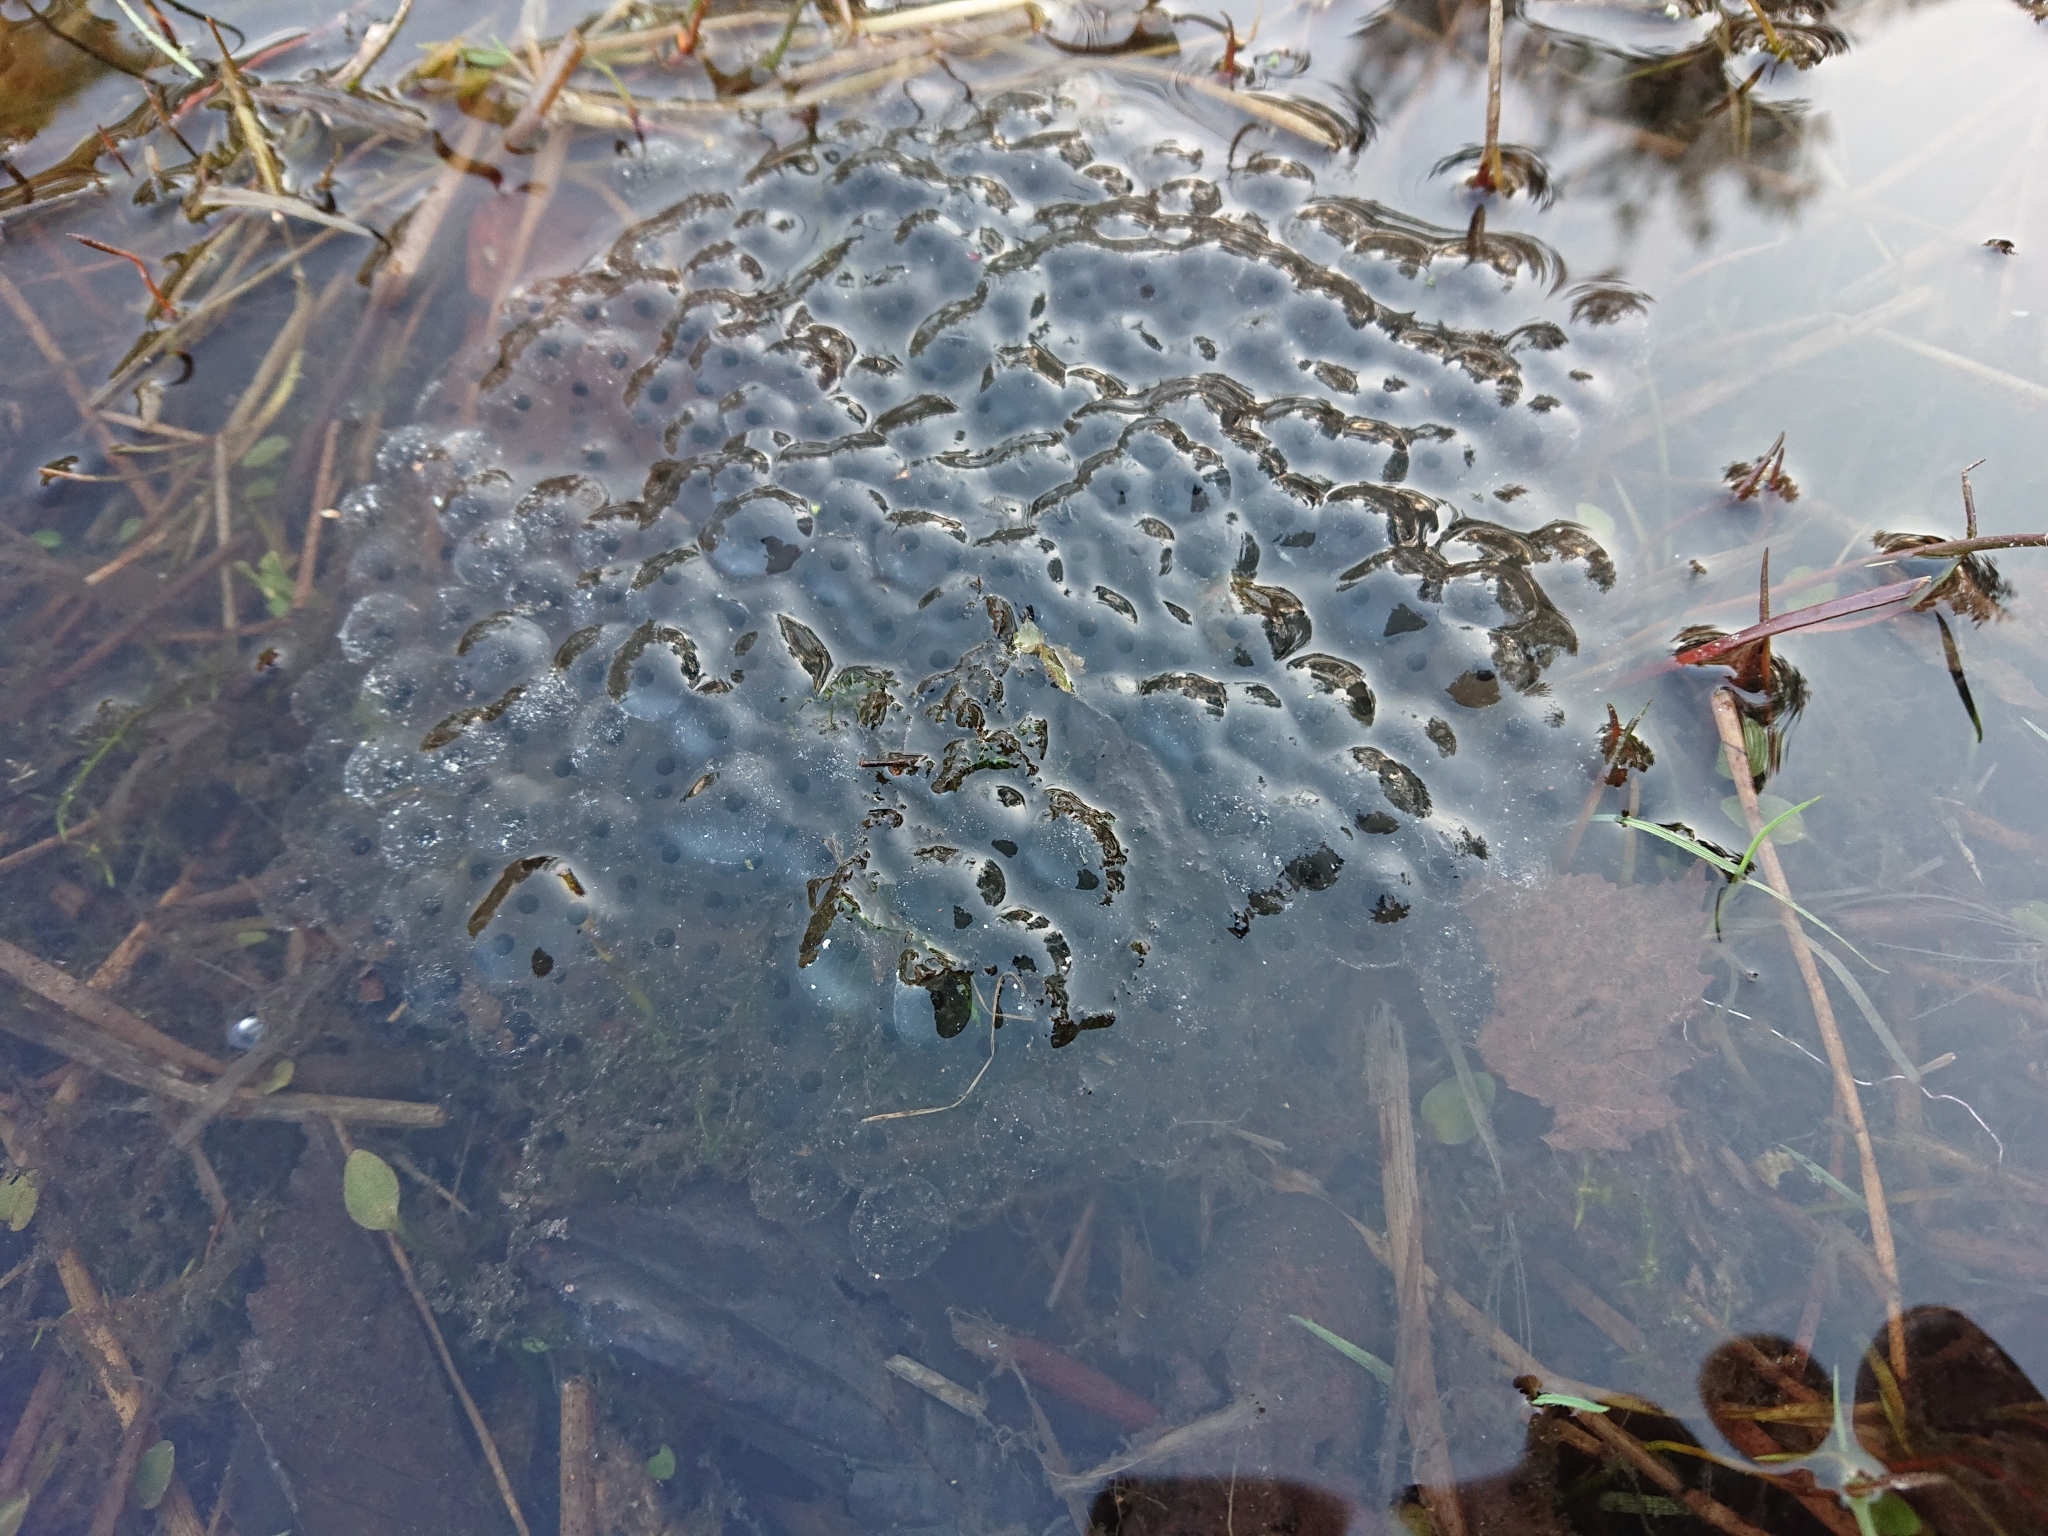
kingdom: Animalia
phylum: Chordata
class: Amphibia
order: Anura
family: Ranidae
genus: Rana
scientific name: Rana temporaria
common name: Common frog
